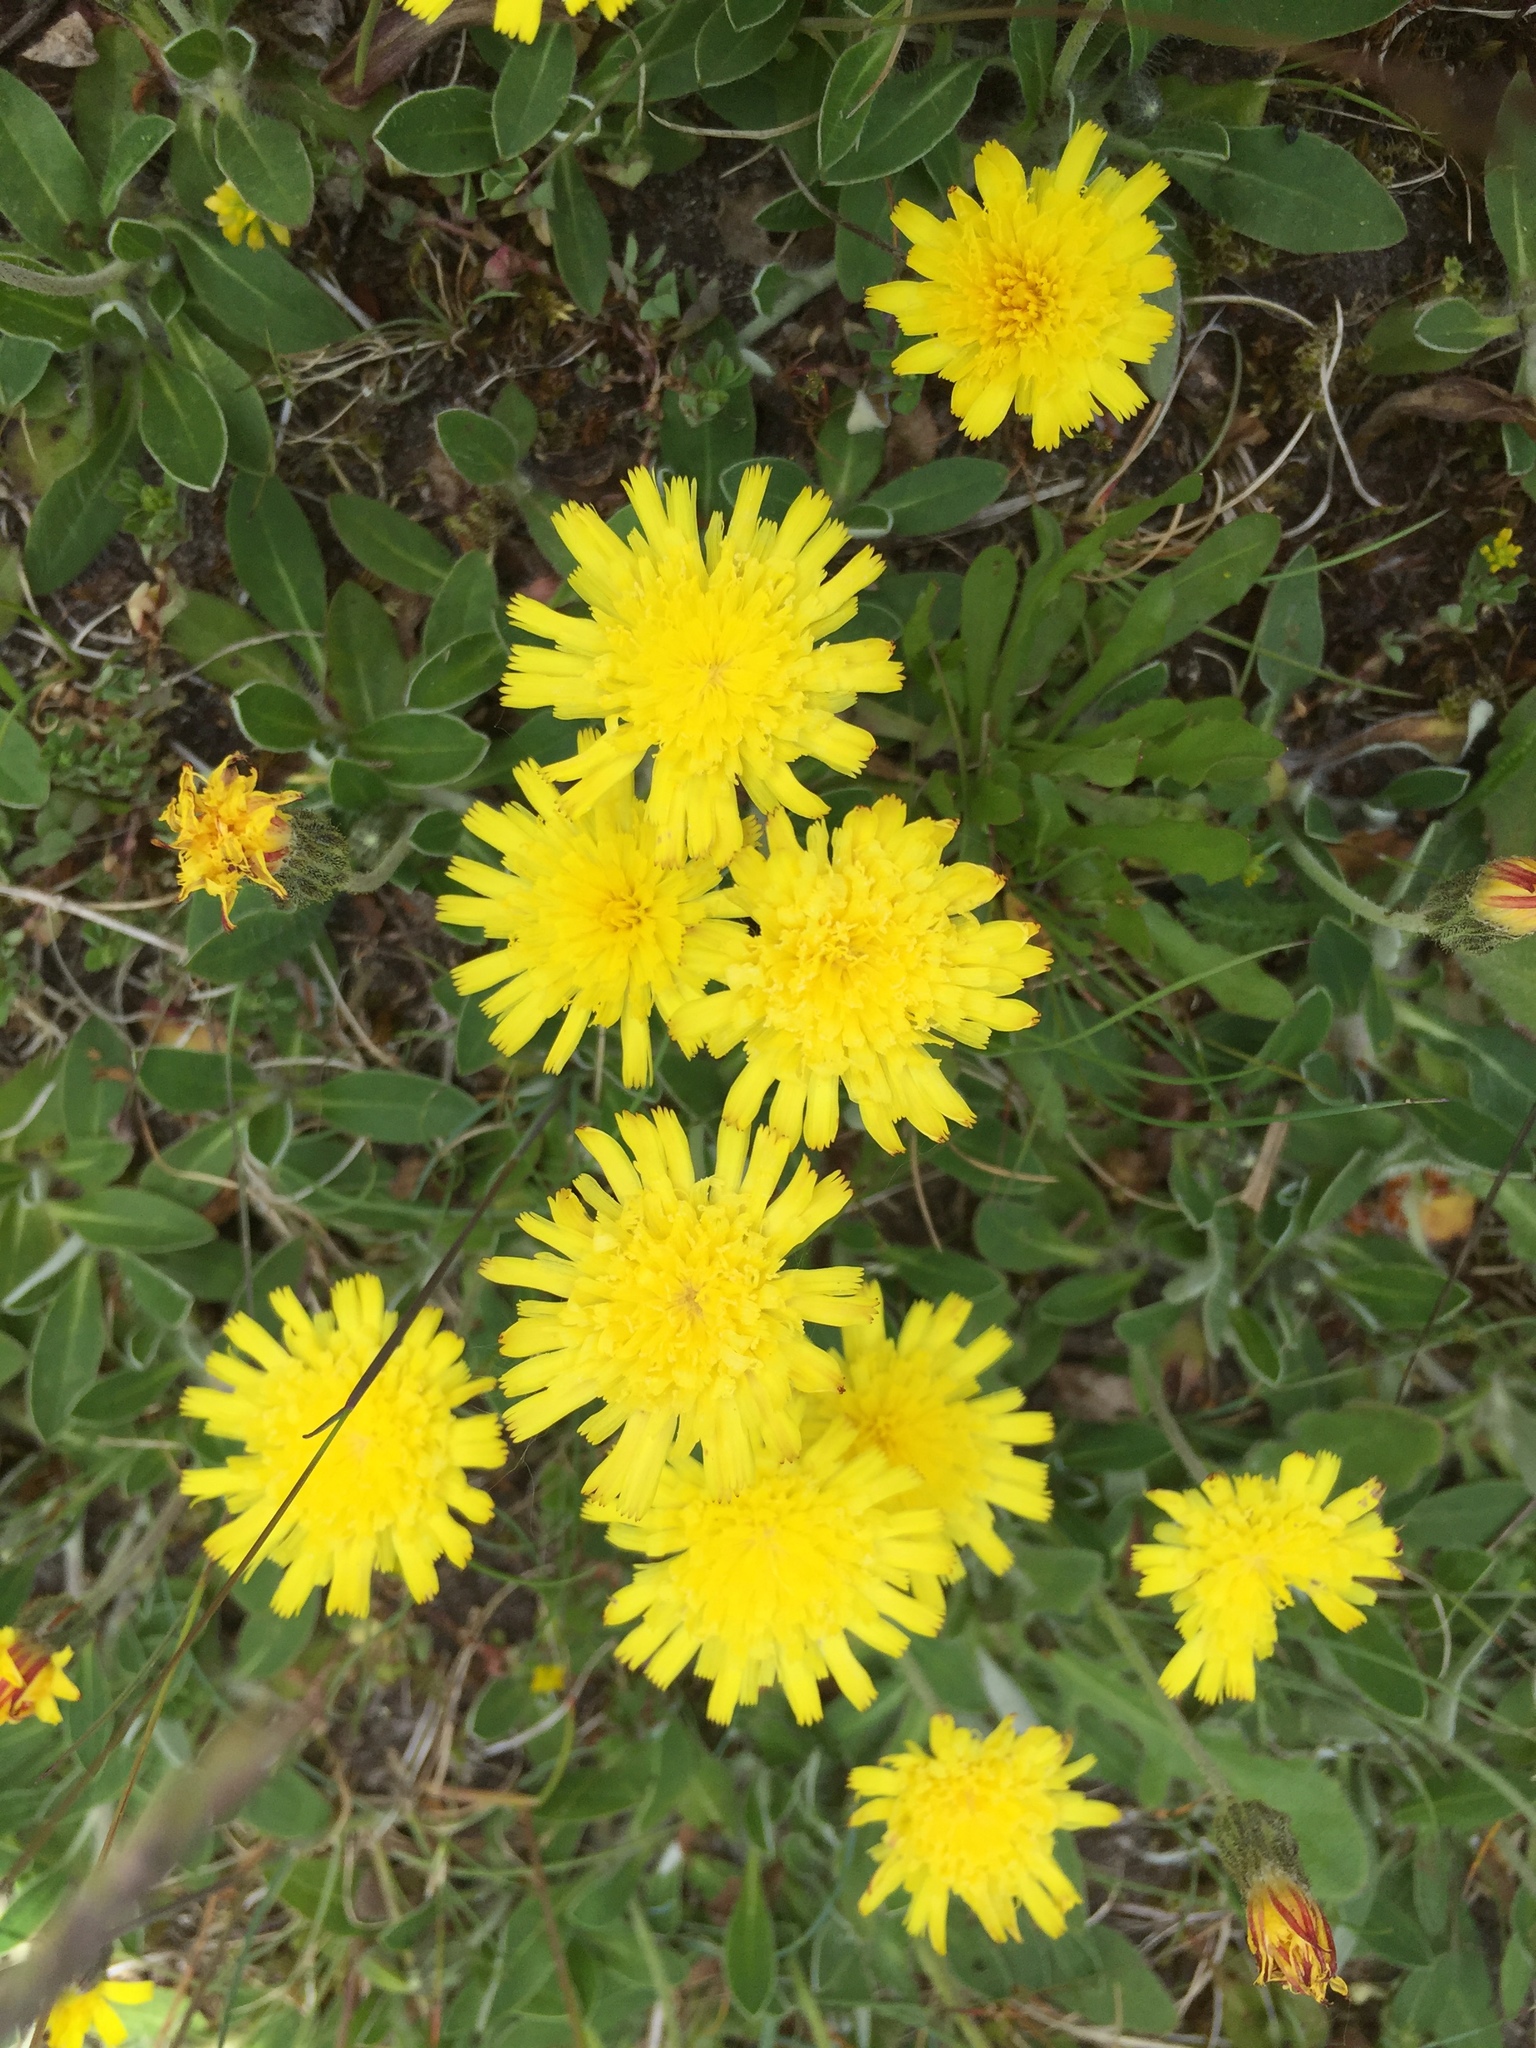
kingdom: Plantae
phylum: Tracheophyta
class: Magnoliopsida
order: Asterales
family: Asteraceae
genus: Pilosella
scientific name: Pilosella officinarum
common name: Mouse-ear hawkweed
